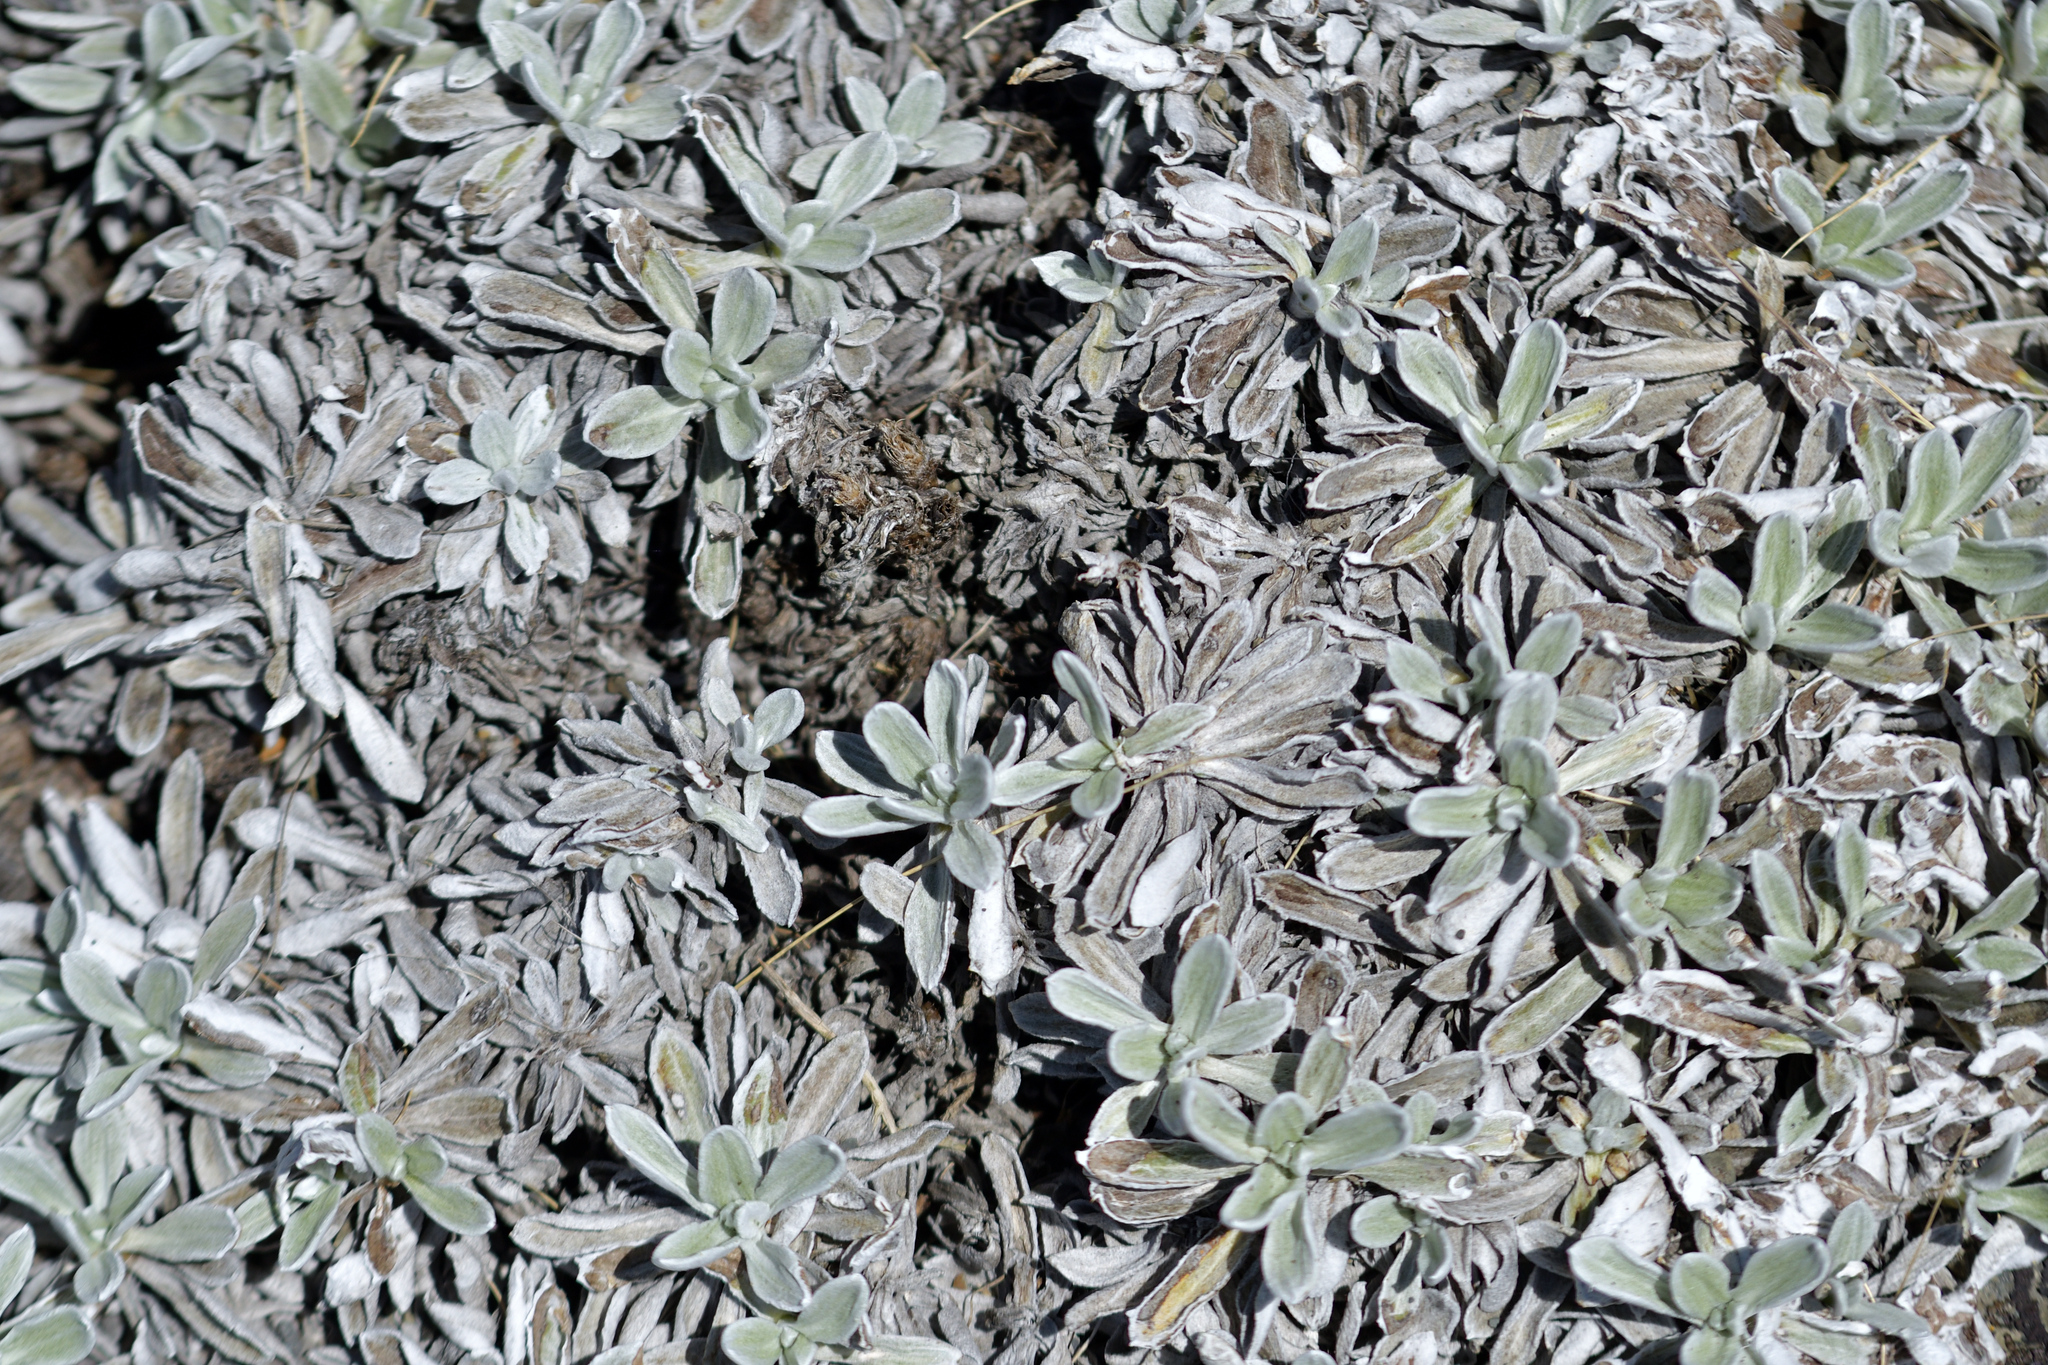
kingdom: Plantae
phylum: Tracheophyta
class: Magnoliopsida
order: Asterales
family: Asteraceae
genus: Celmisia
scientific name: Celmisia allanii
